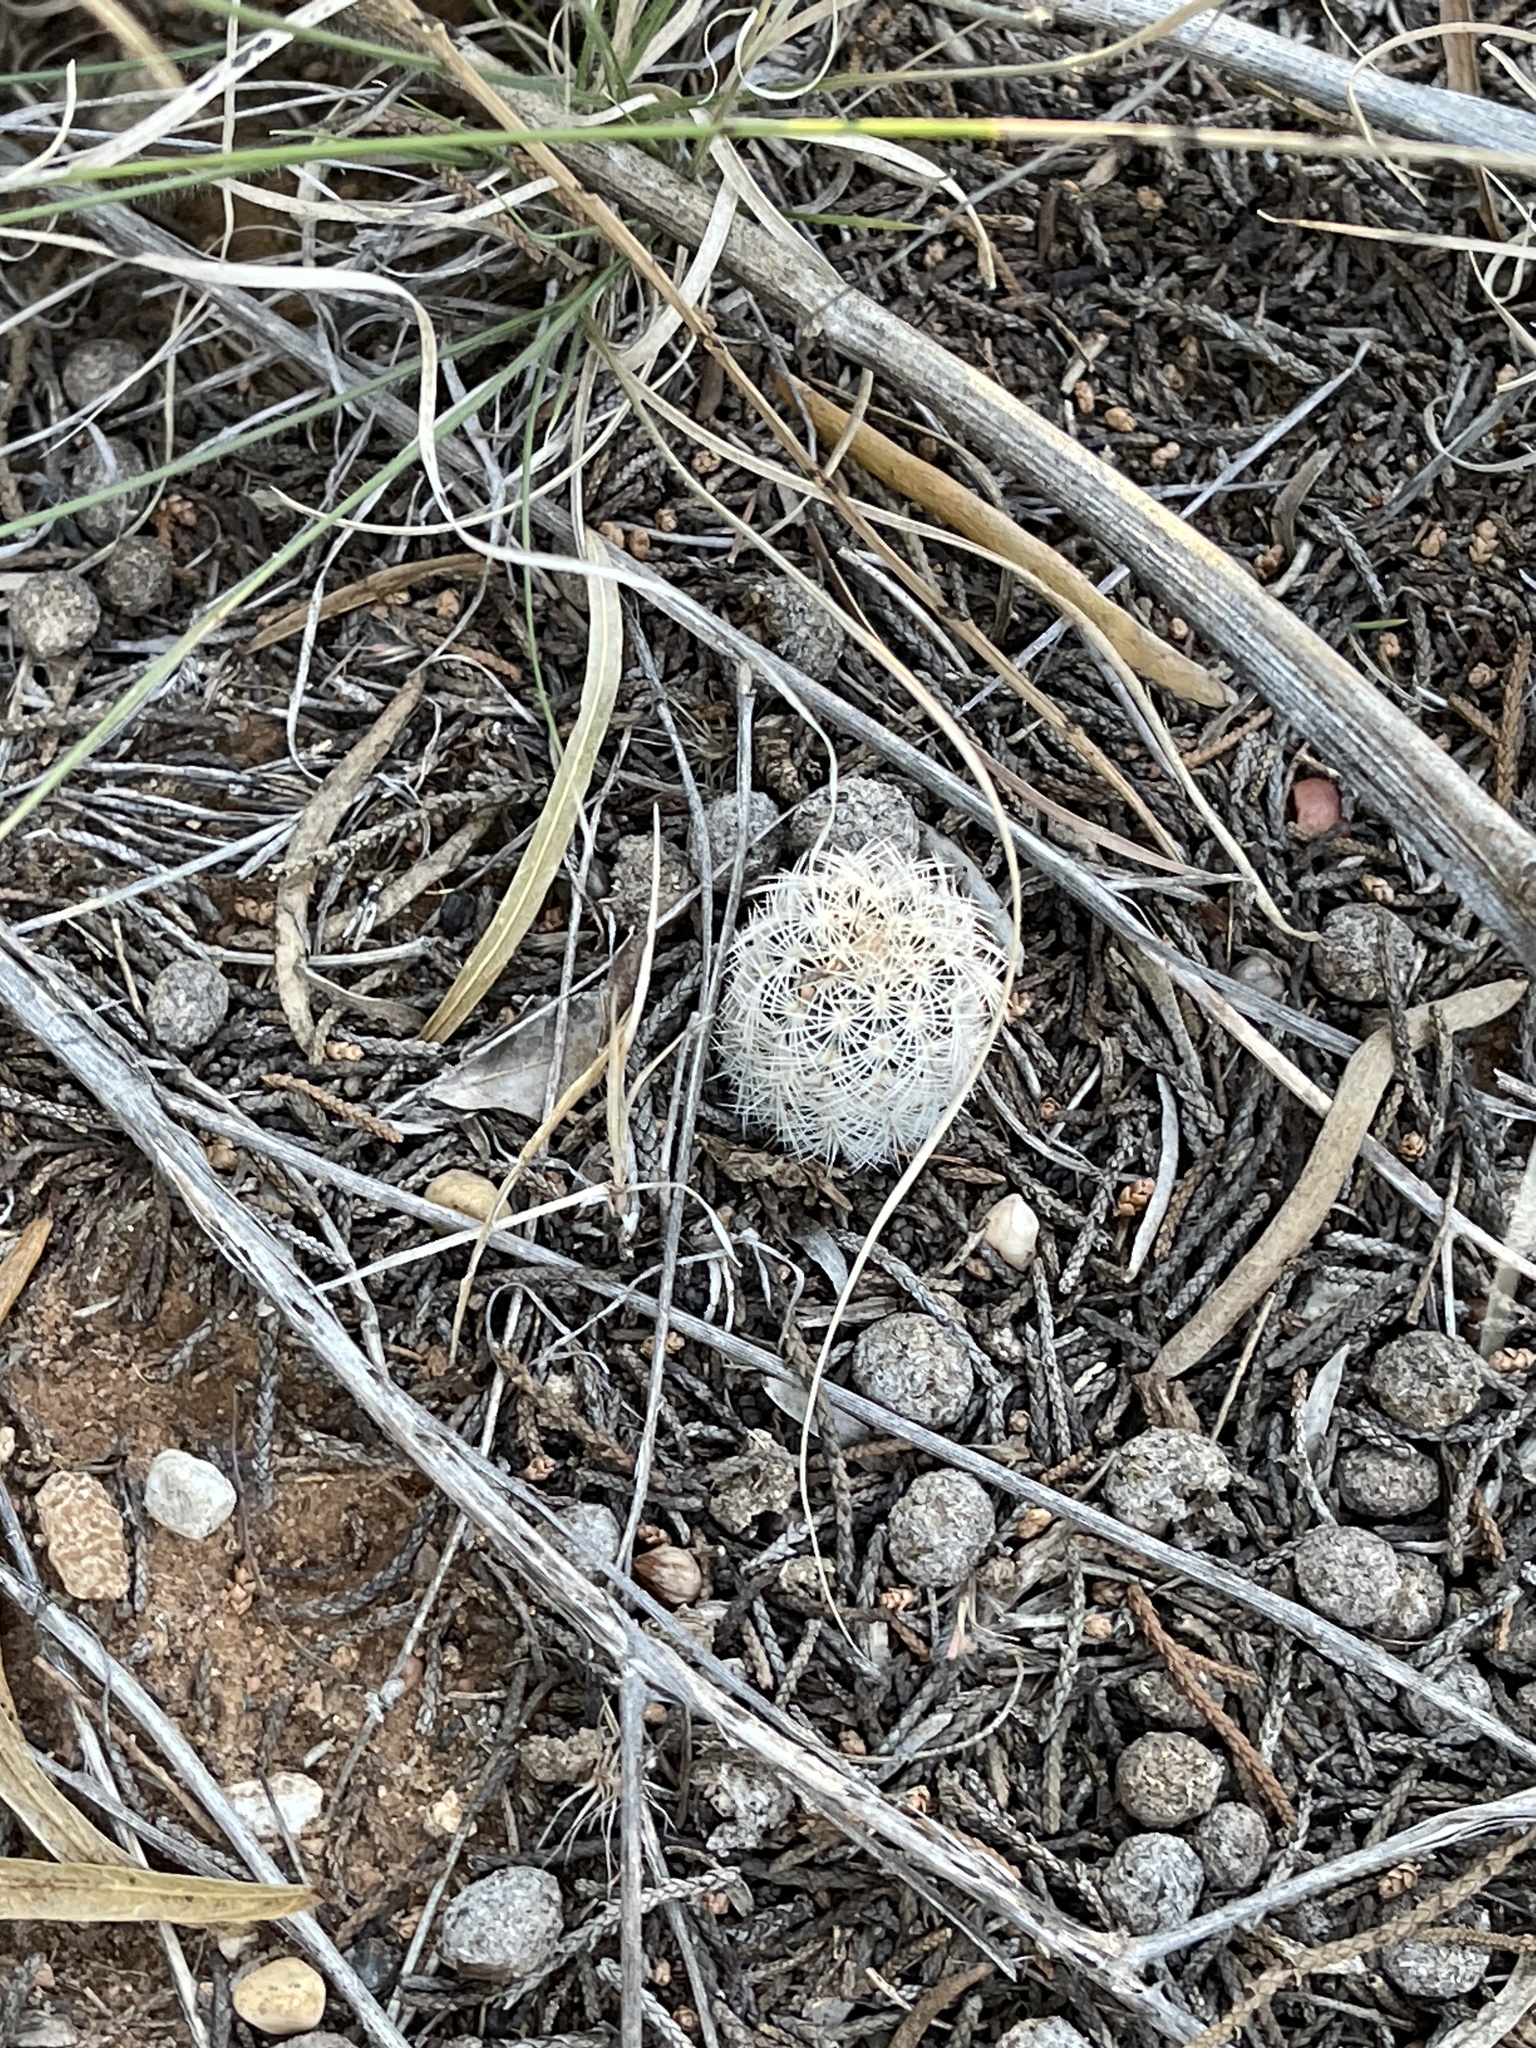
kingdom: Plantae
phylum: Tracheophyta
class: Magnoliopsida
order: Caryophyllales
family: Cactaceae
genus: Echinocereus
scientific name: Echinocereus reichenbachii
